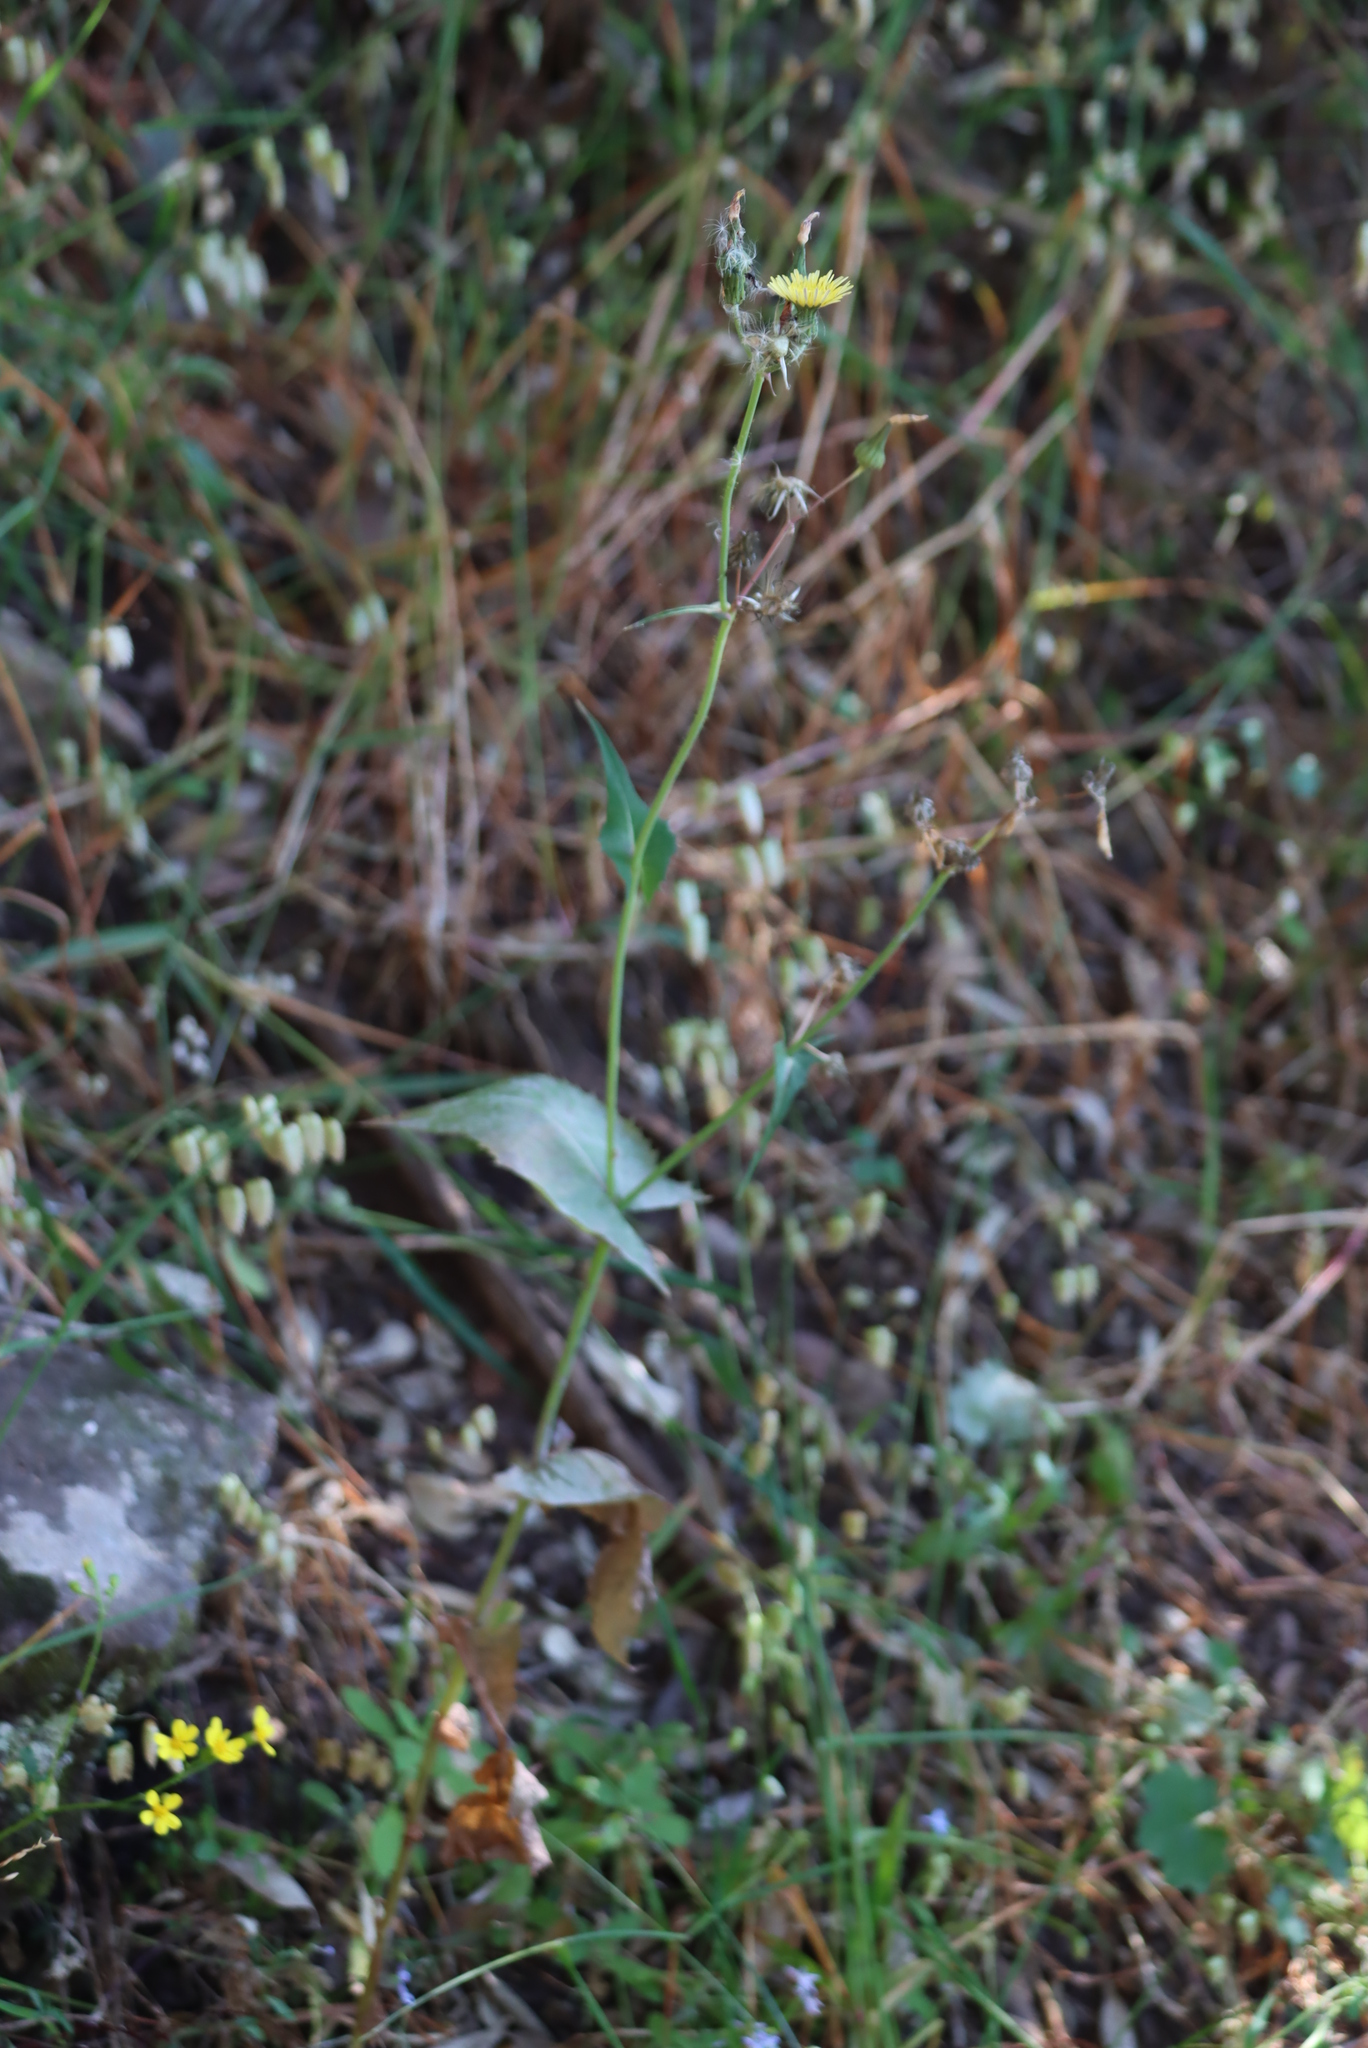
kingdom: Plantae
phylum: Tracheophyta
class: Magnoliopsida
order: Asterales
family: Asteraceae
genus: Sonchus
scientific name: Sonchus oleraceus
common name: Common sowthistle
